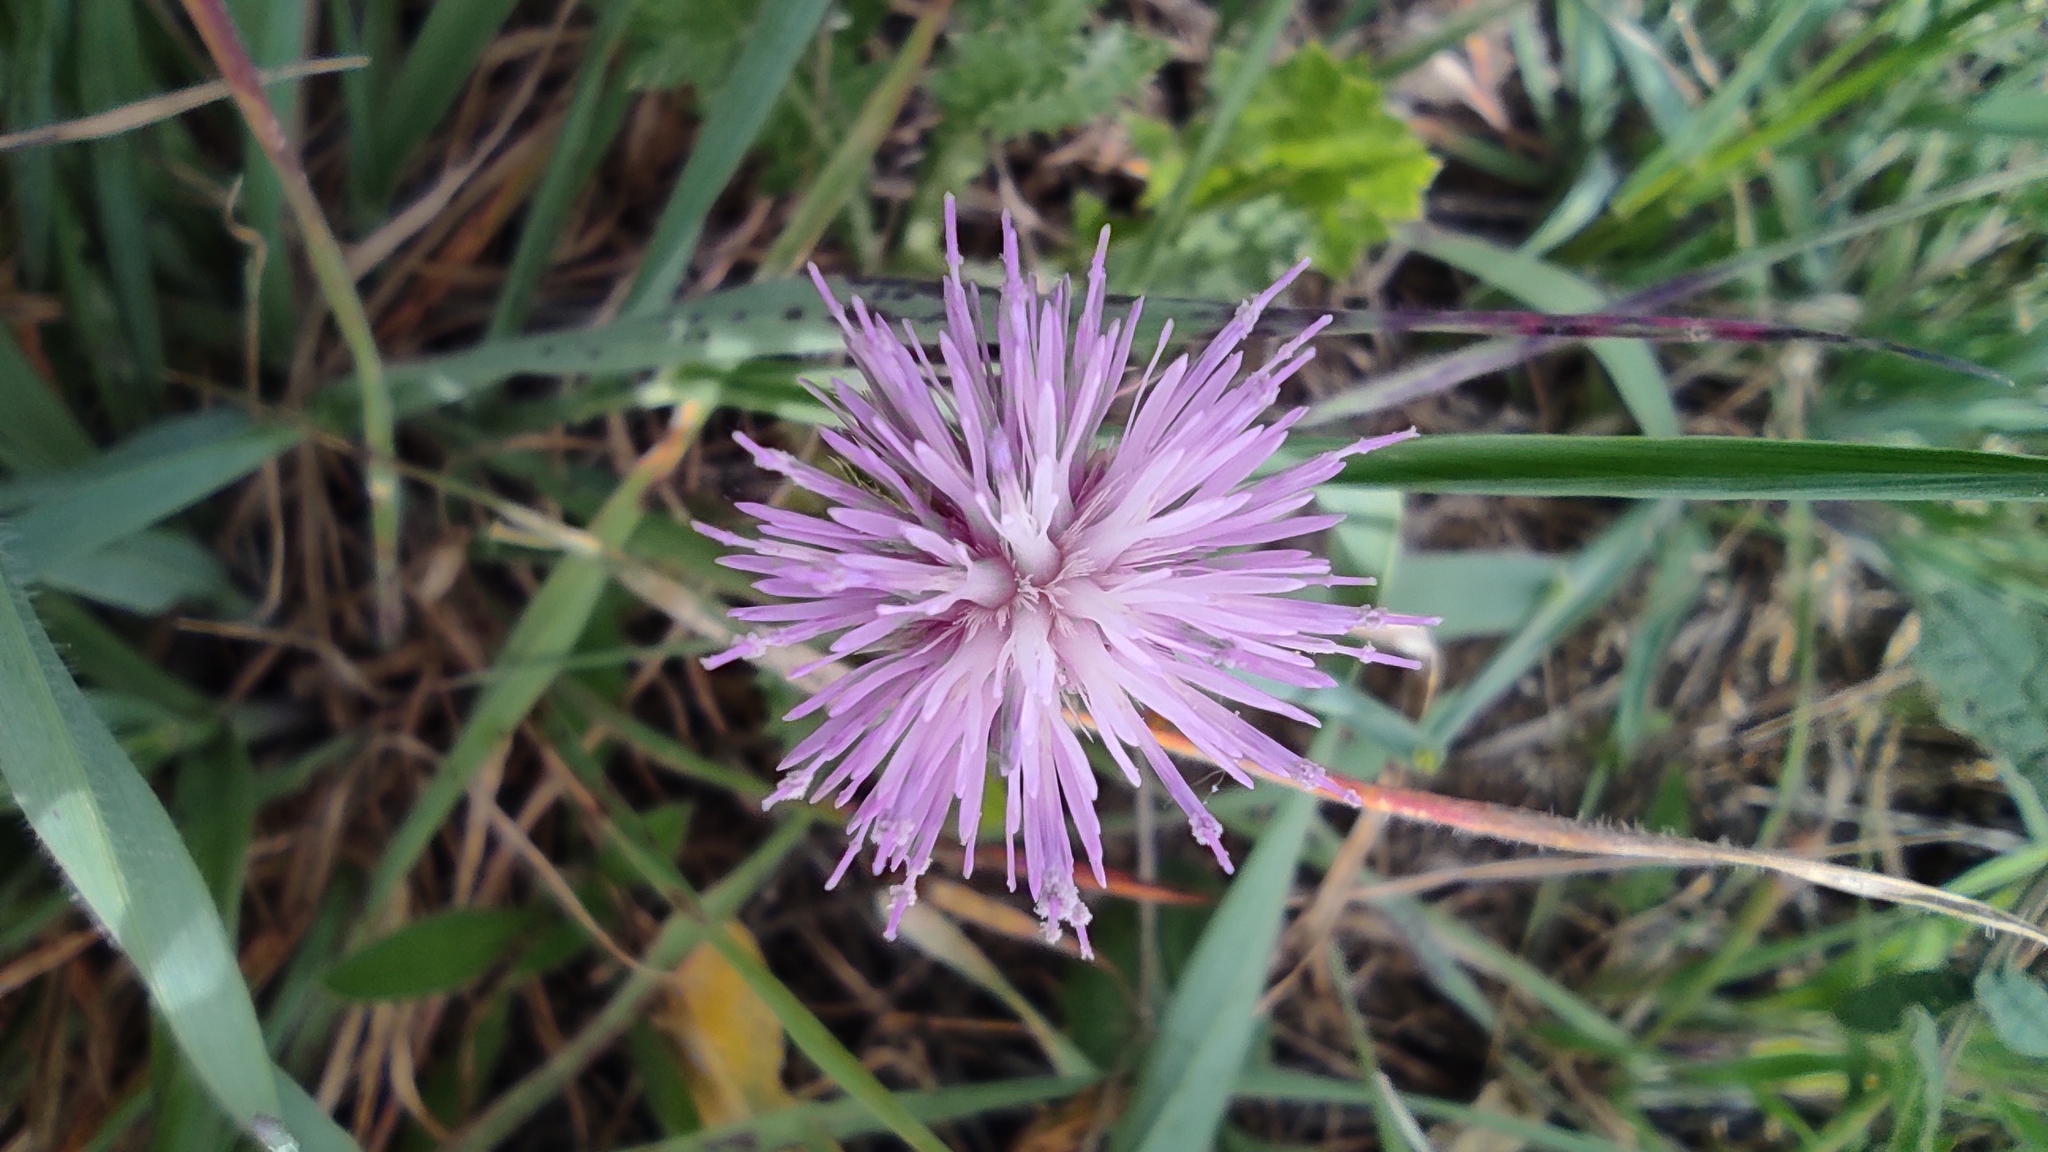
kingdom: Plantae
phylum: Tracheophyta
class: Magnoliopsida
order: Asterales
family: Asteraceae
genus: Carduus
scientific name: Carduus bourgeanus
